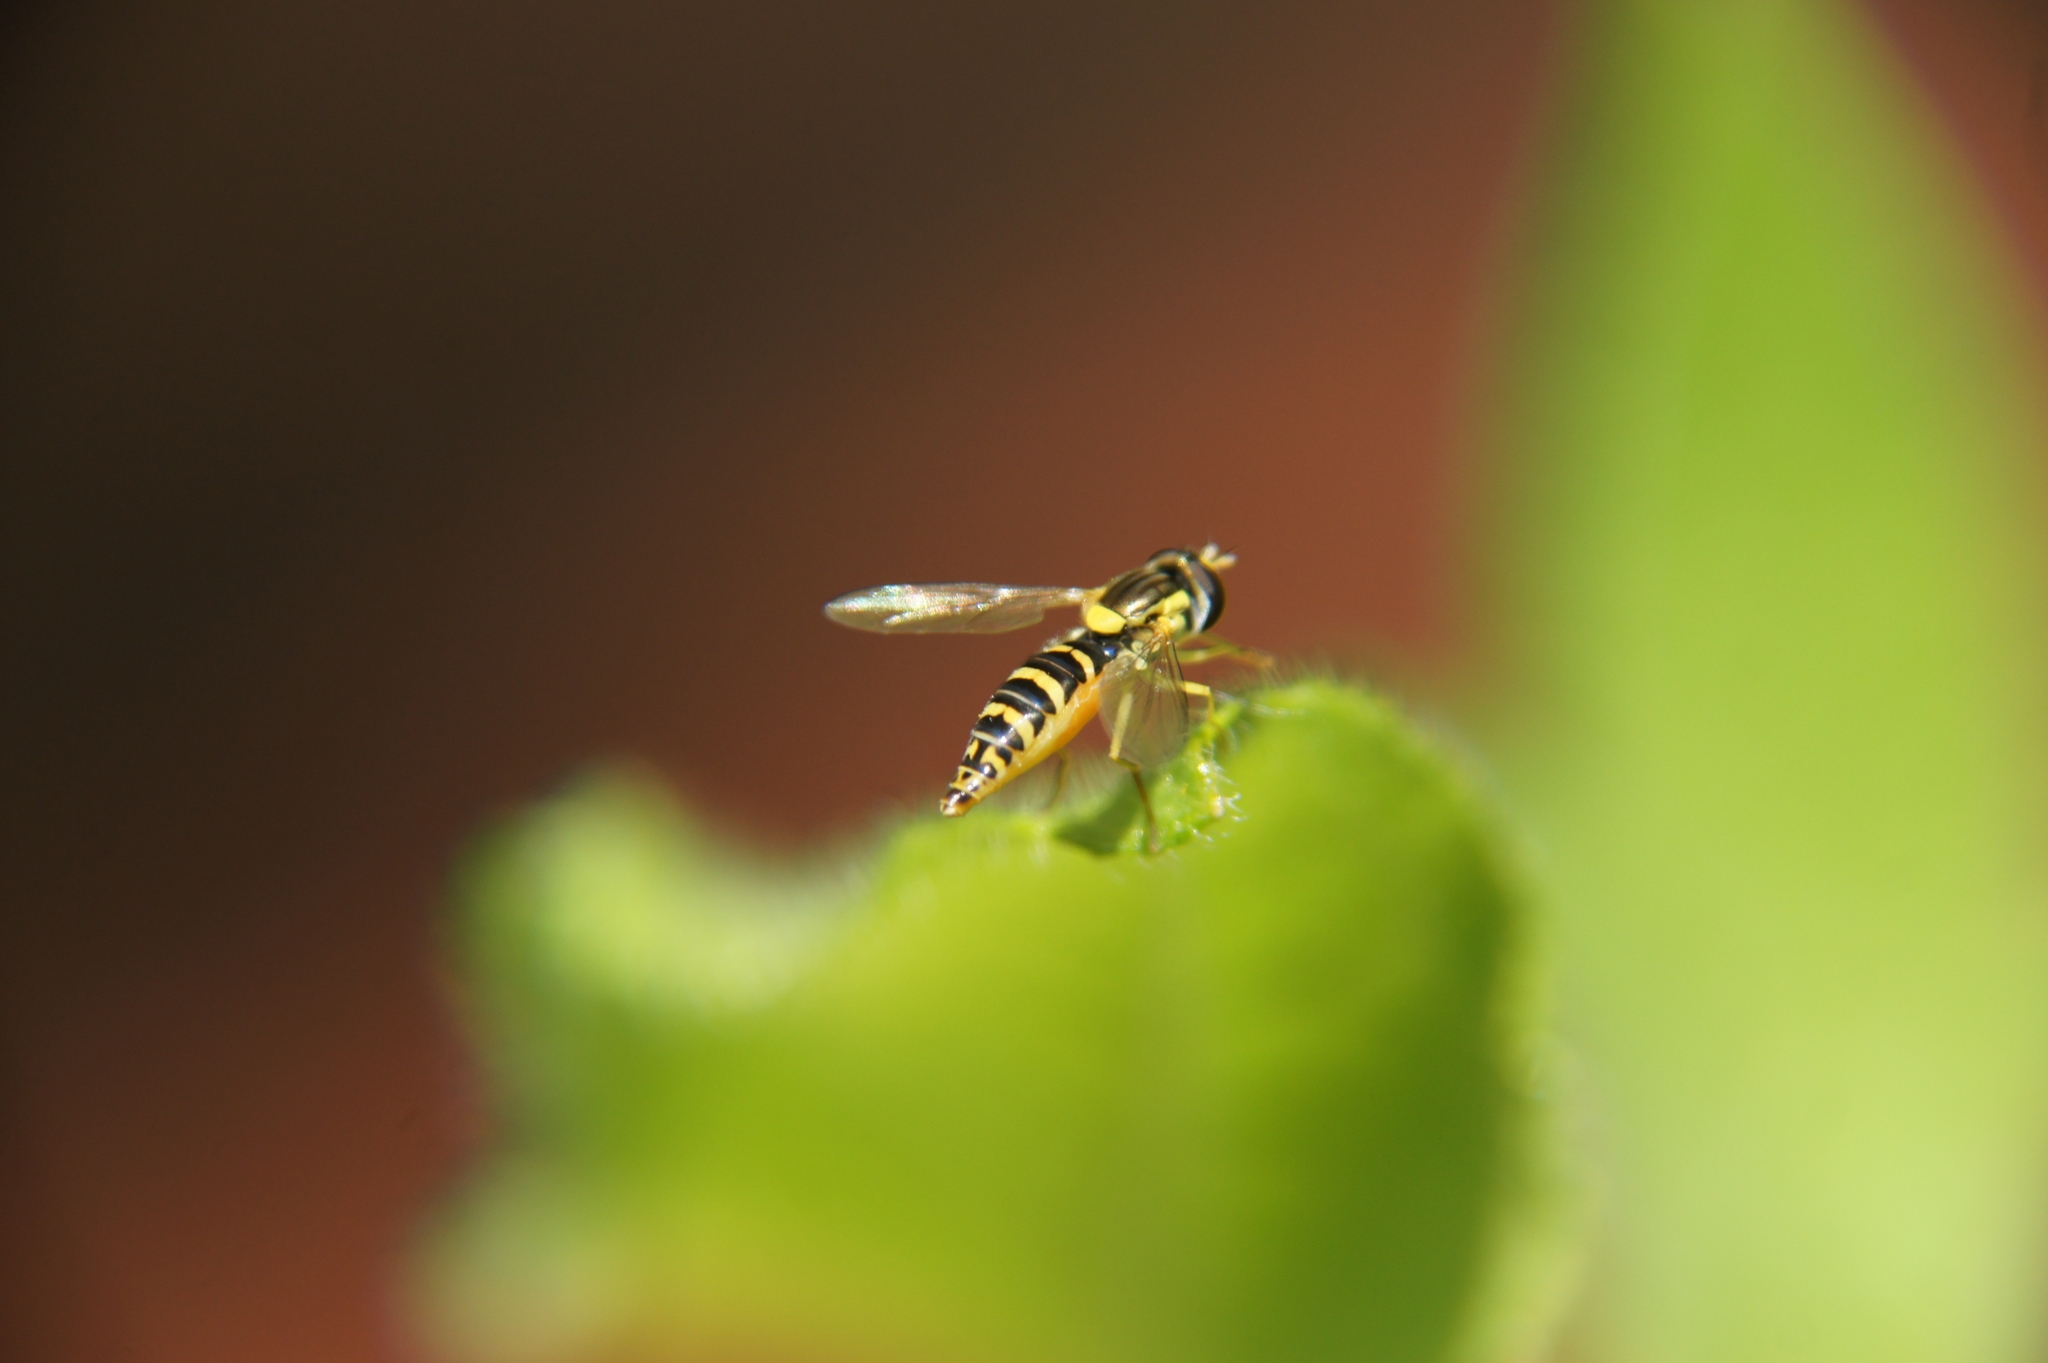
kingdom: Animalia
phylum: Arthropoda
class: Insecta
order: Diptera
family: Syrphidae
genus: Sphaerophoria
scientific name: Sphaerophoria
